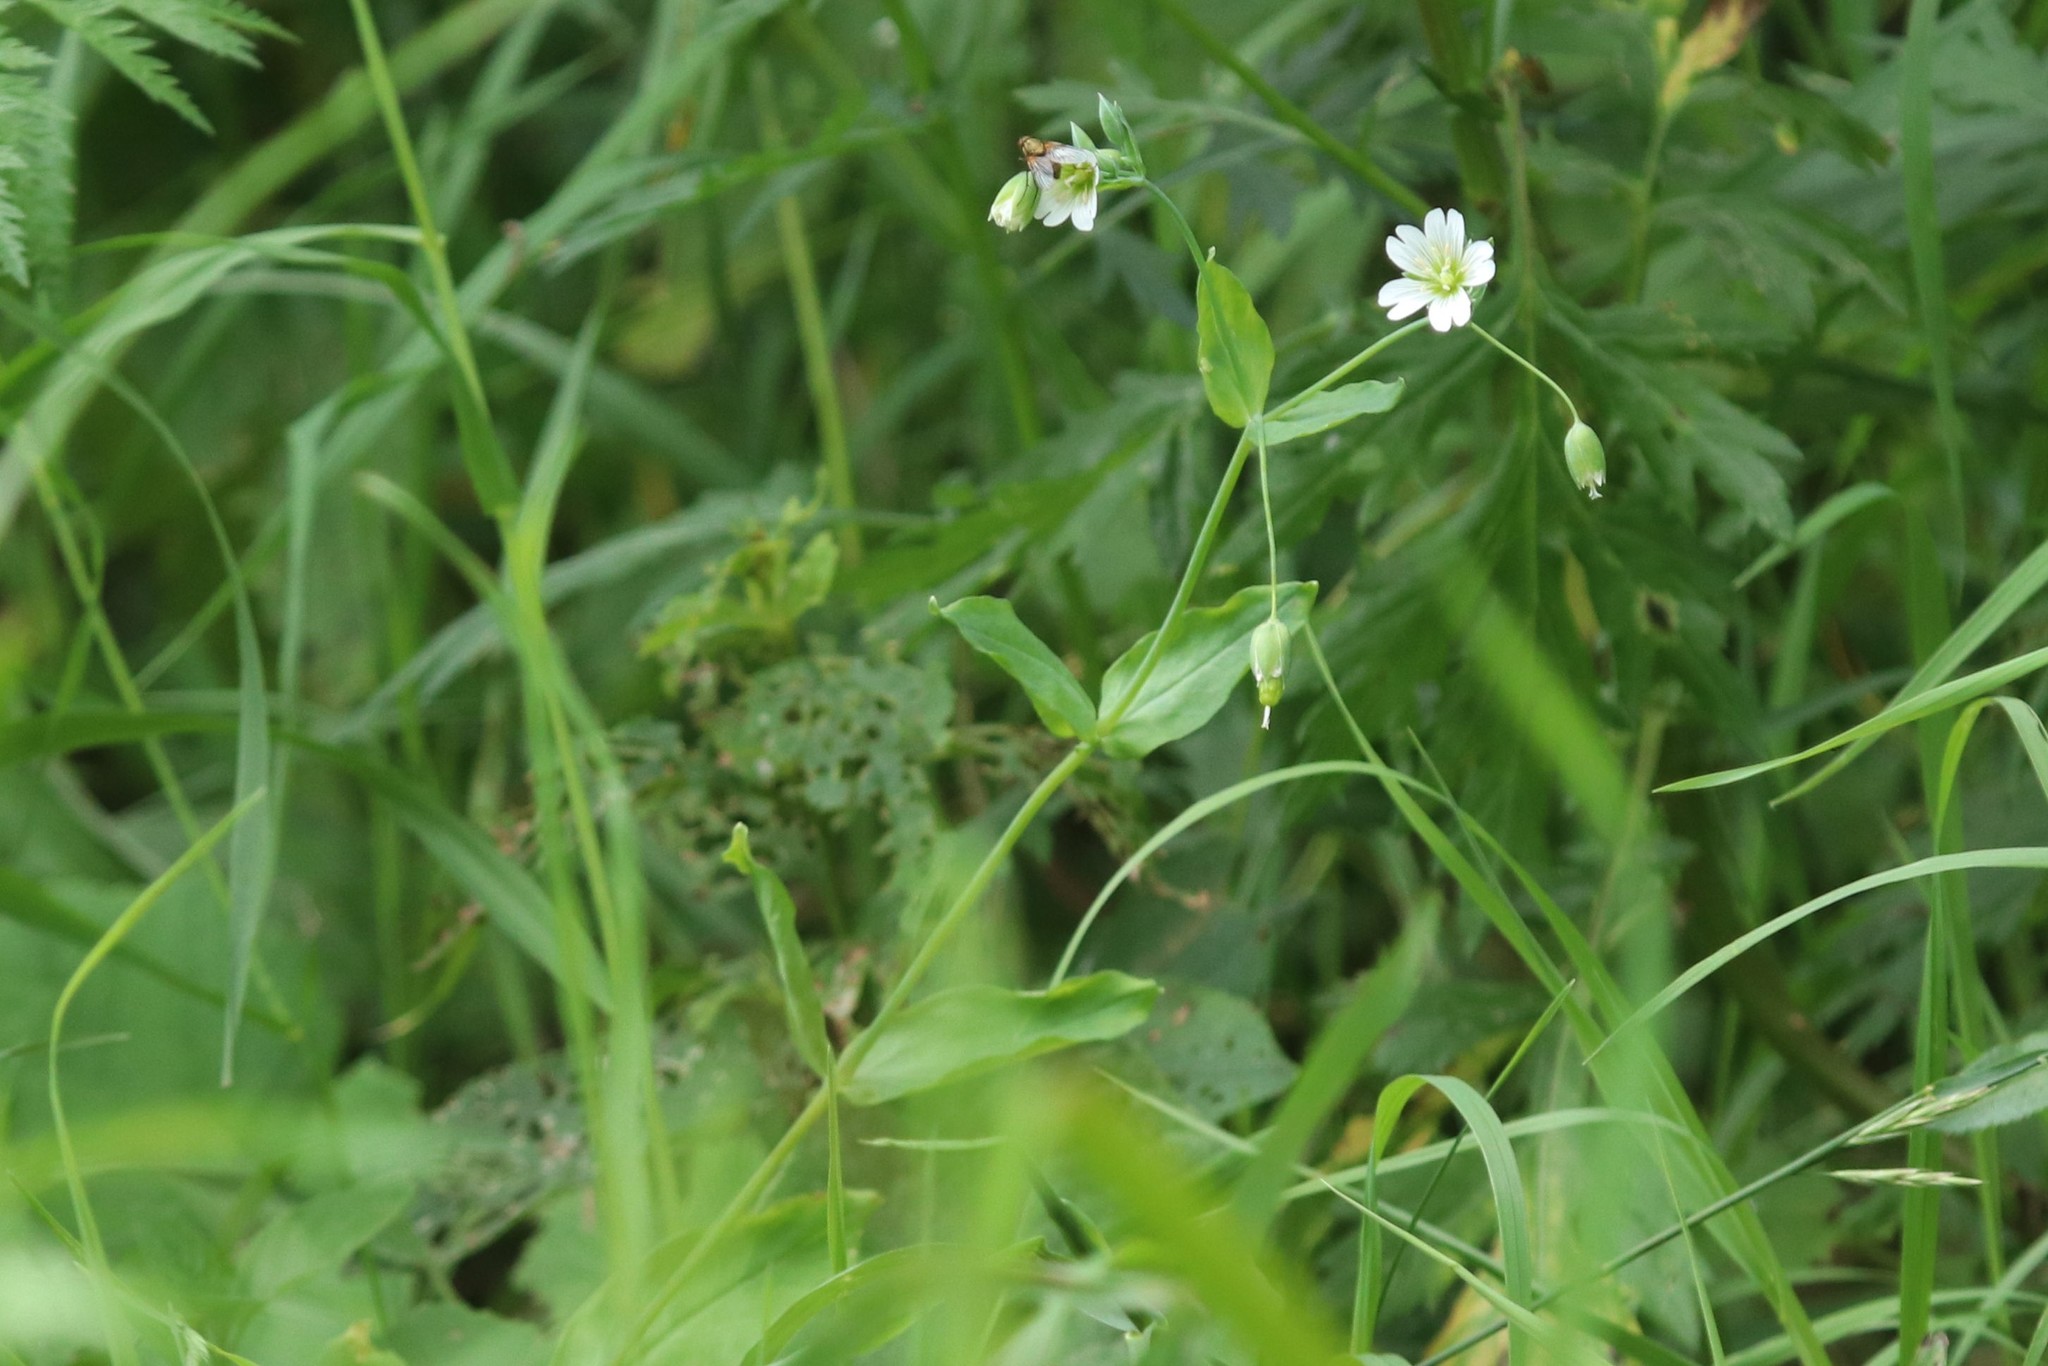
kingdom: Plantae
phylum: Tracheophyta
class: Magnoliopsida
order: Caryophyllales
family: Caryophyllaceae
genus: Cerastium
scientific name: Cerastium davuricum
